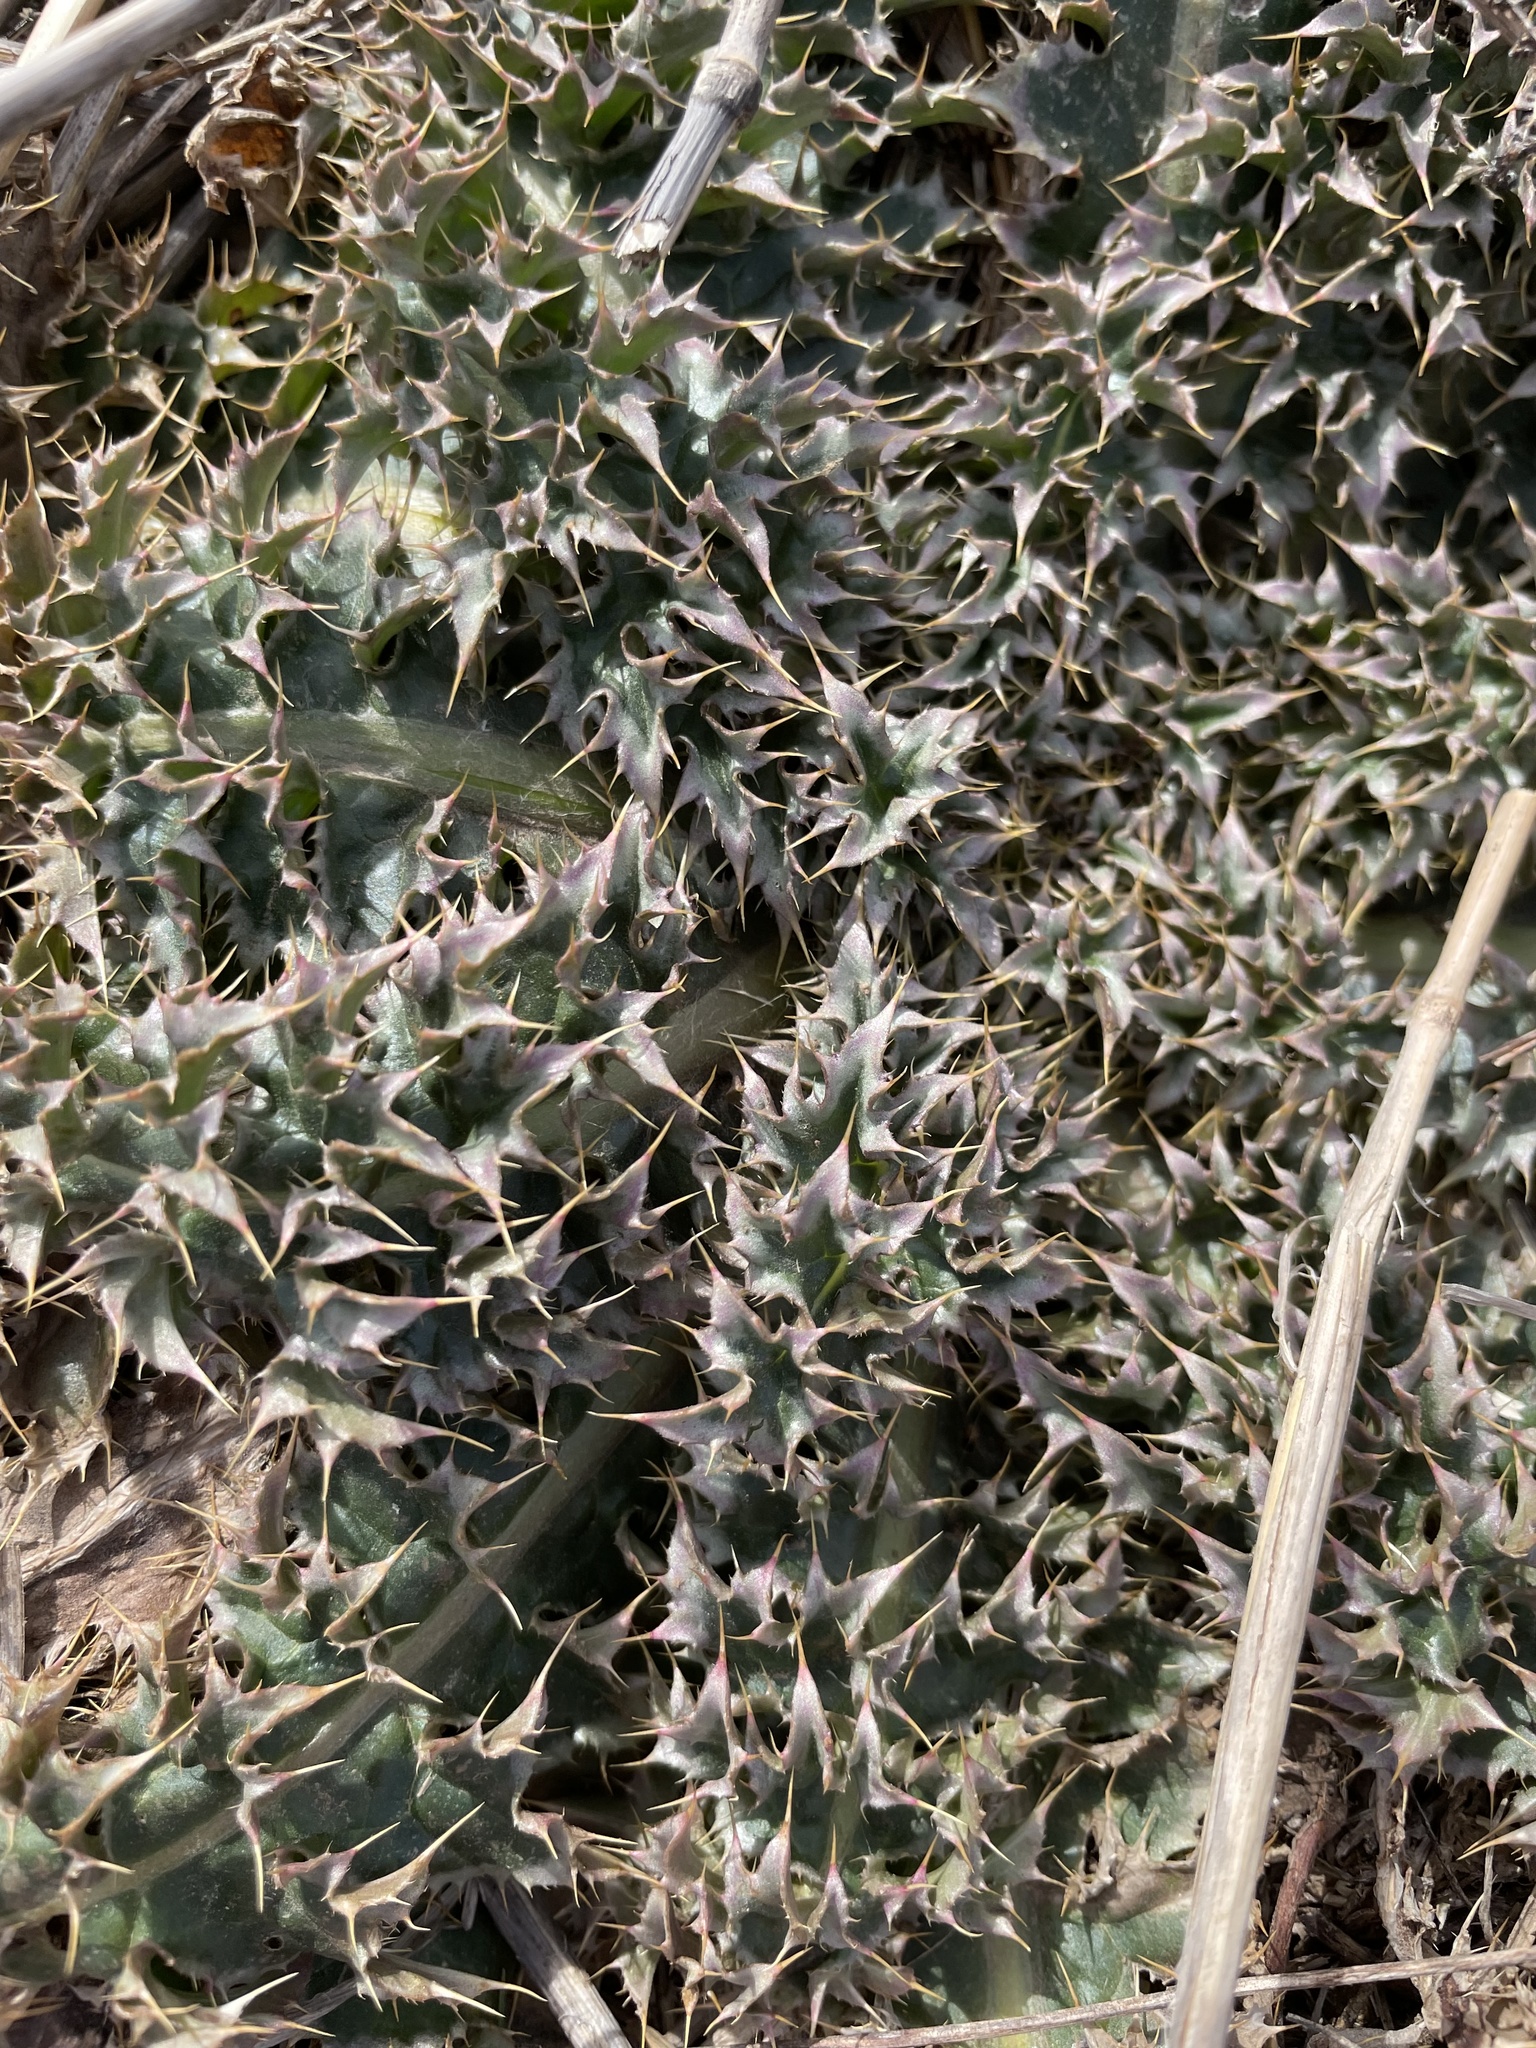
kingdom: Plantae
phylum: Tracheophyta
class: Magnoliopsida
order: Asterales
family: Asteraceae
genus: Carduus
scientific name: Carduus nutans
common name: Musk thistle
